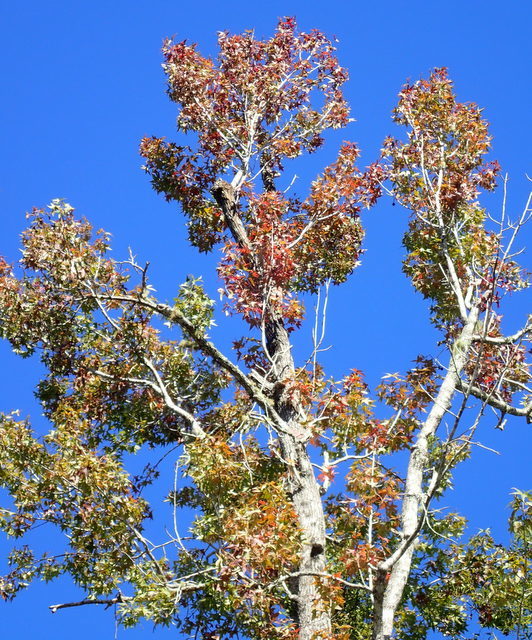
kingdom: Plantae
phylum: Tracheophyta
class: Magnoliopsida
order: Saxifragales
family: Altingiaceae
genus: Liquidambar
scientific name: Liquidambar styraciflua
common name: Sweet gum
